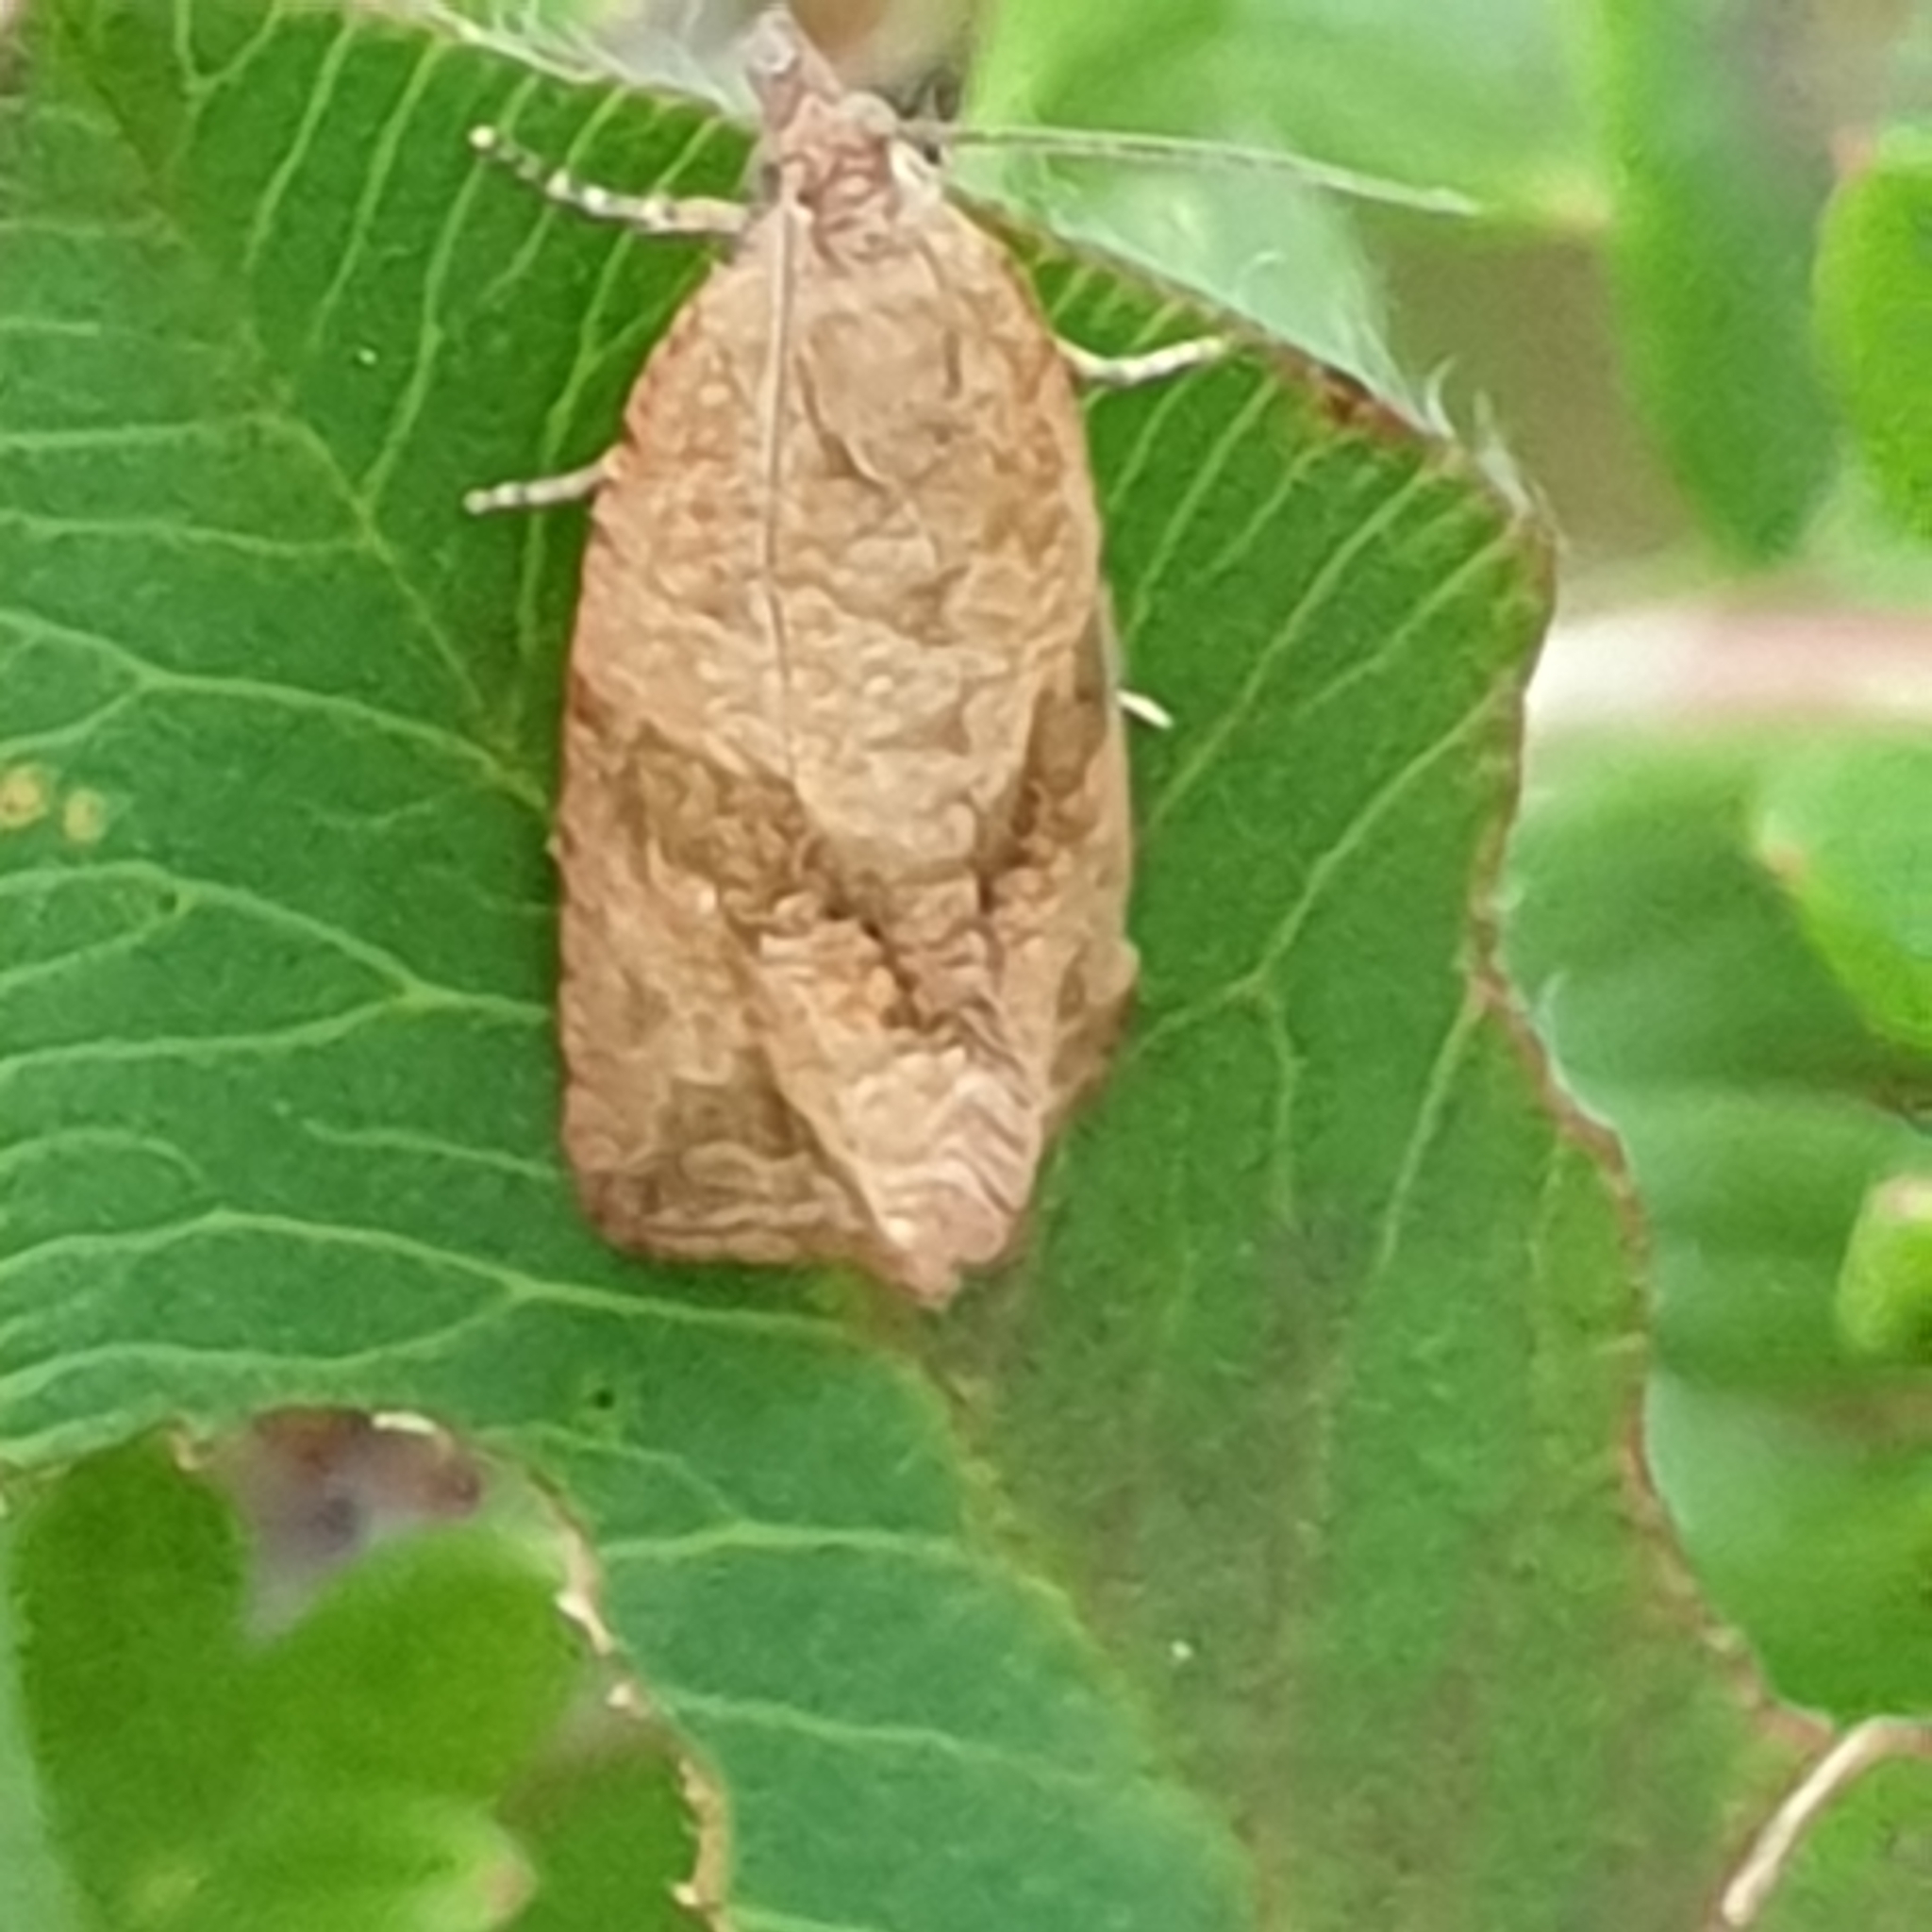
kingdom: Animalia
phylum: Arthropoda
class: Insecta
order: Lepidoptera
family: Tortricidae
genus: Celypha
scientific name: Celypha striana
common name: Barred marble
